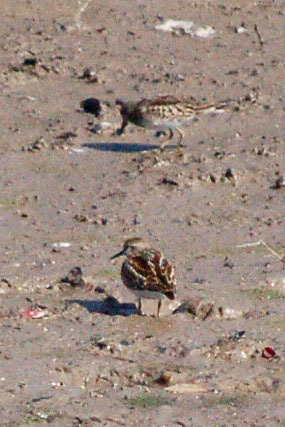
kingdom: Animalia
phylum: Chordata
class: Aves
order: Charadriiformes
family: Scolopacidae
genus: Calidris
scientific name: Calidris minutilla
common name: Least sandpiper
